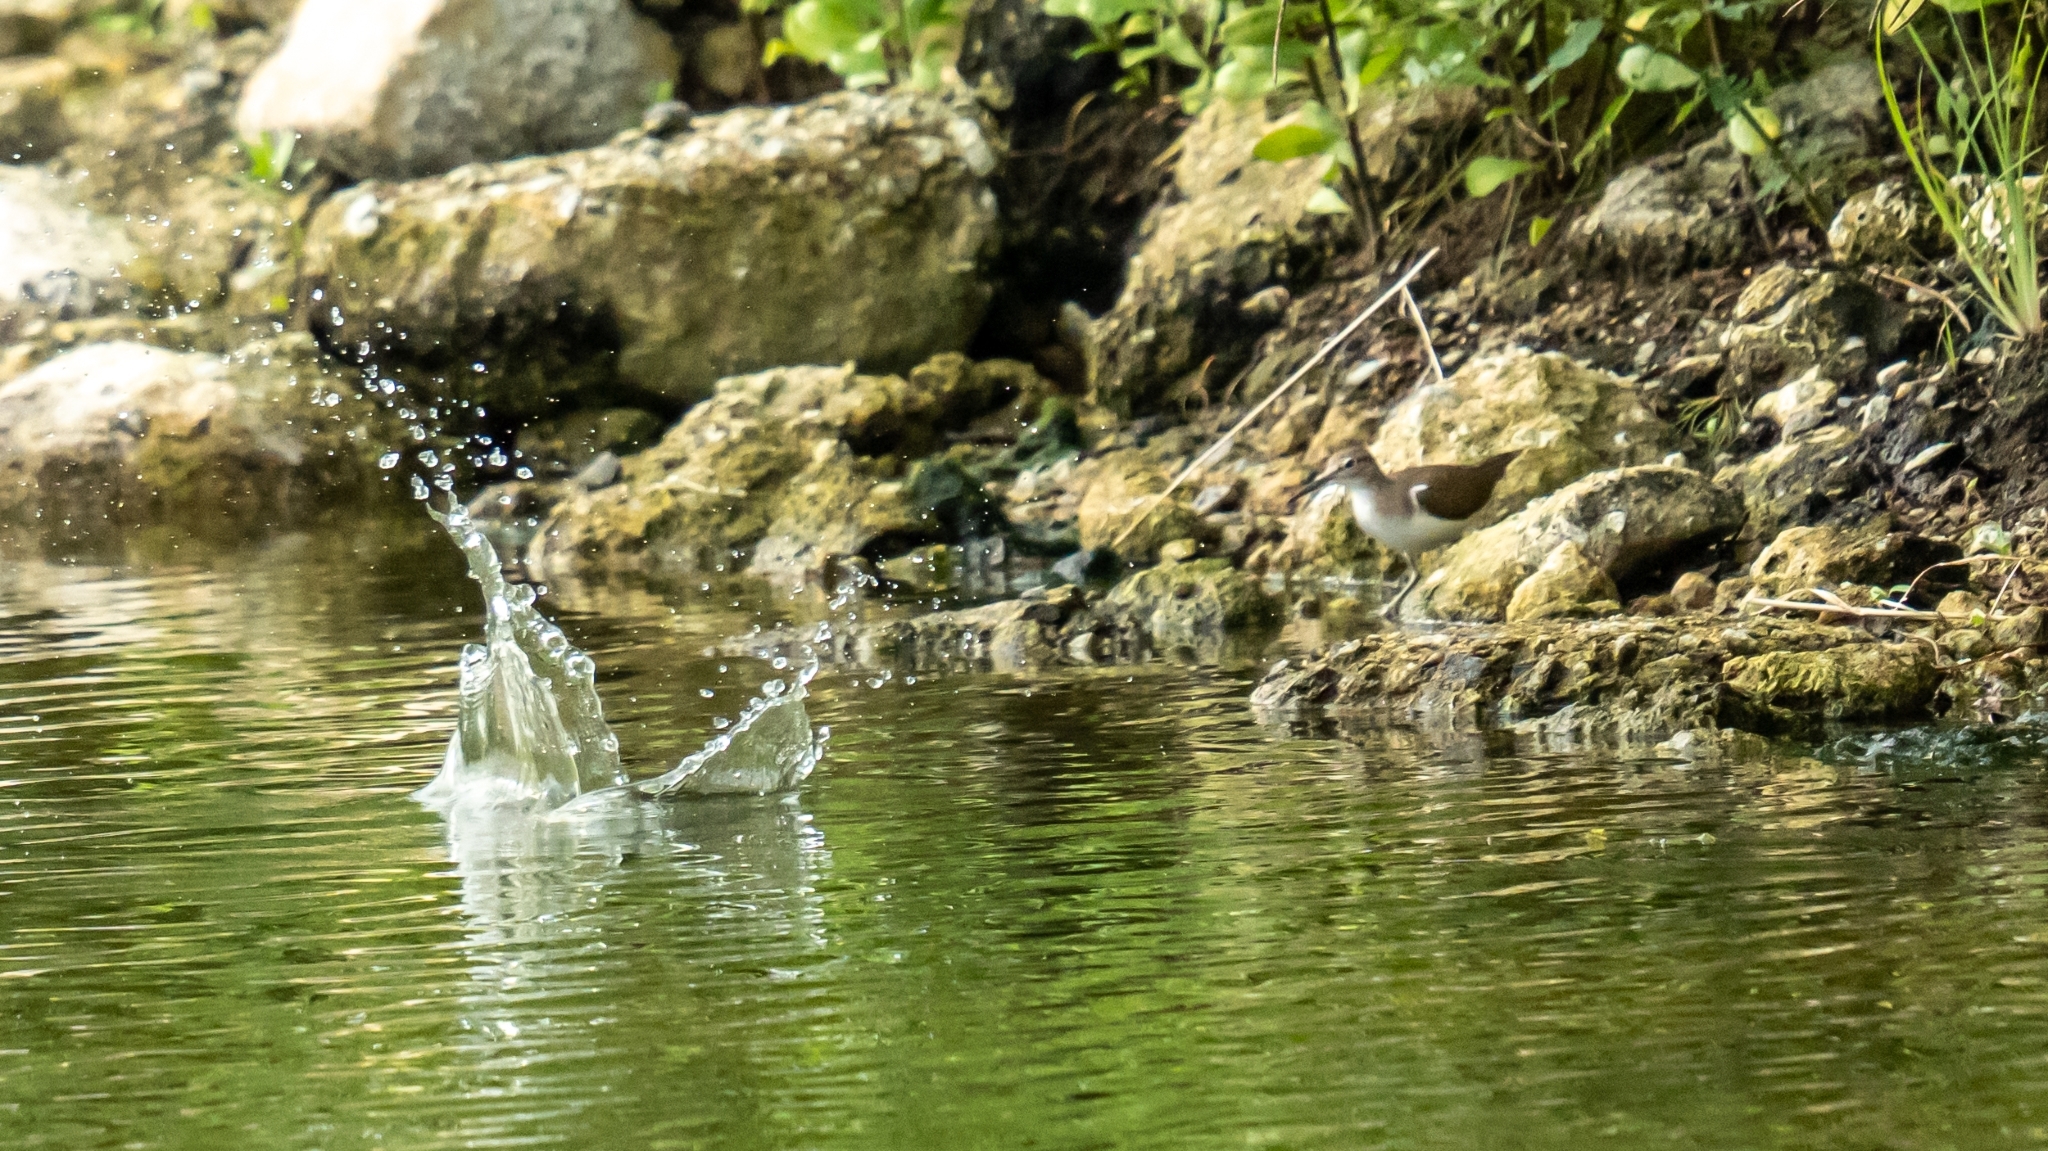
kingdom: Animalia
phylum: Chordata
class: Aves
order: Charadriiformes
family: Scolopacidae
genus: Actitis
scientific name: Actitis hypoleucos
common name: Common sandpiper
